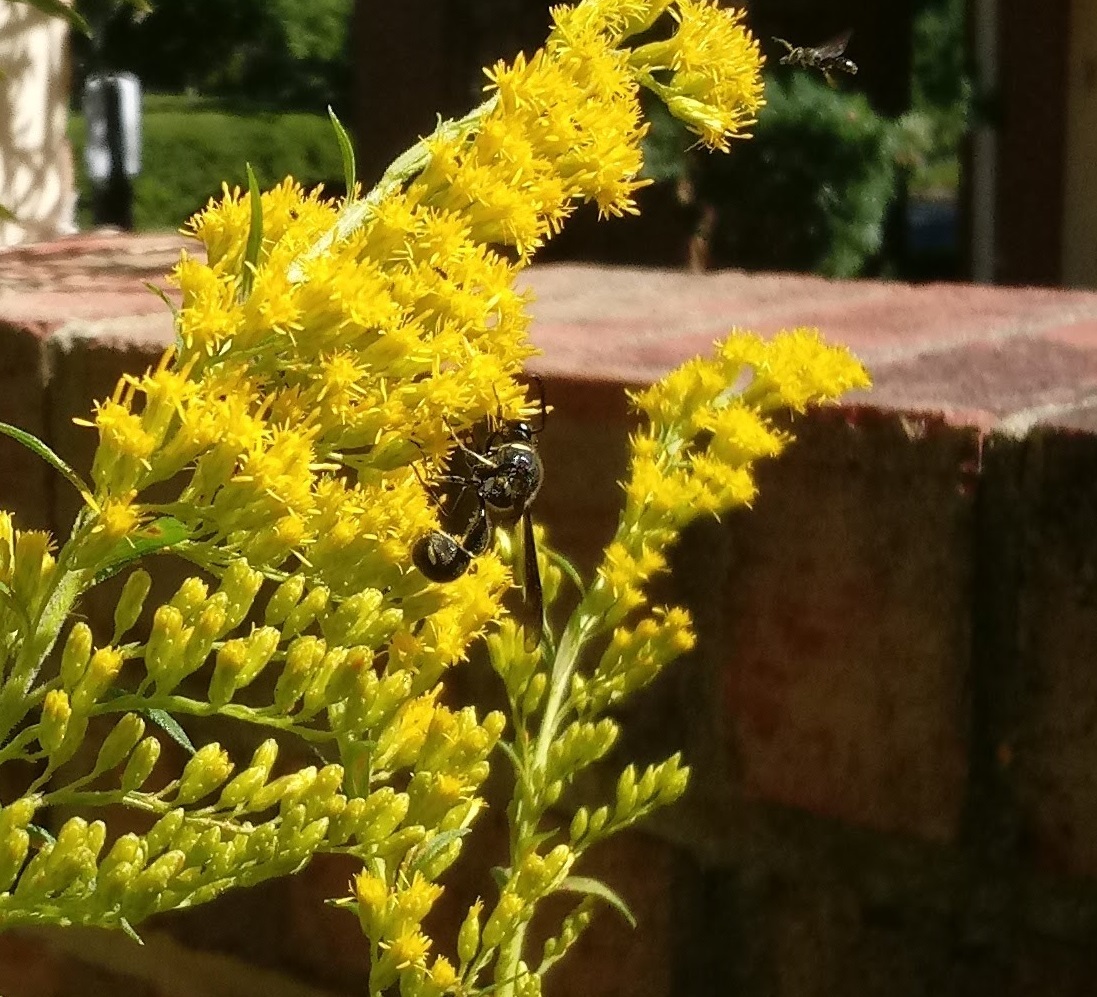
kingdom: Animalia
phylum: Arthropoda
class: Insecta
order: Hymenoptera
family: Vespidae
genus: Eumenes
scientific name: Eumenes fraternus
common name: Fraternal potter wasp
